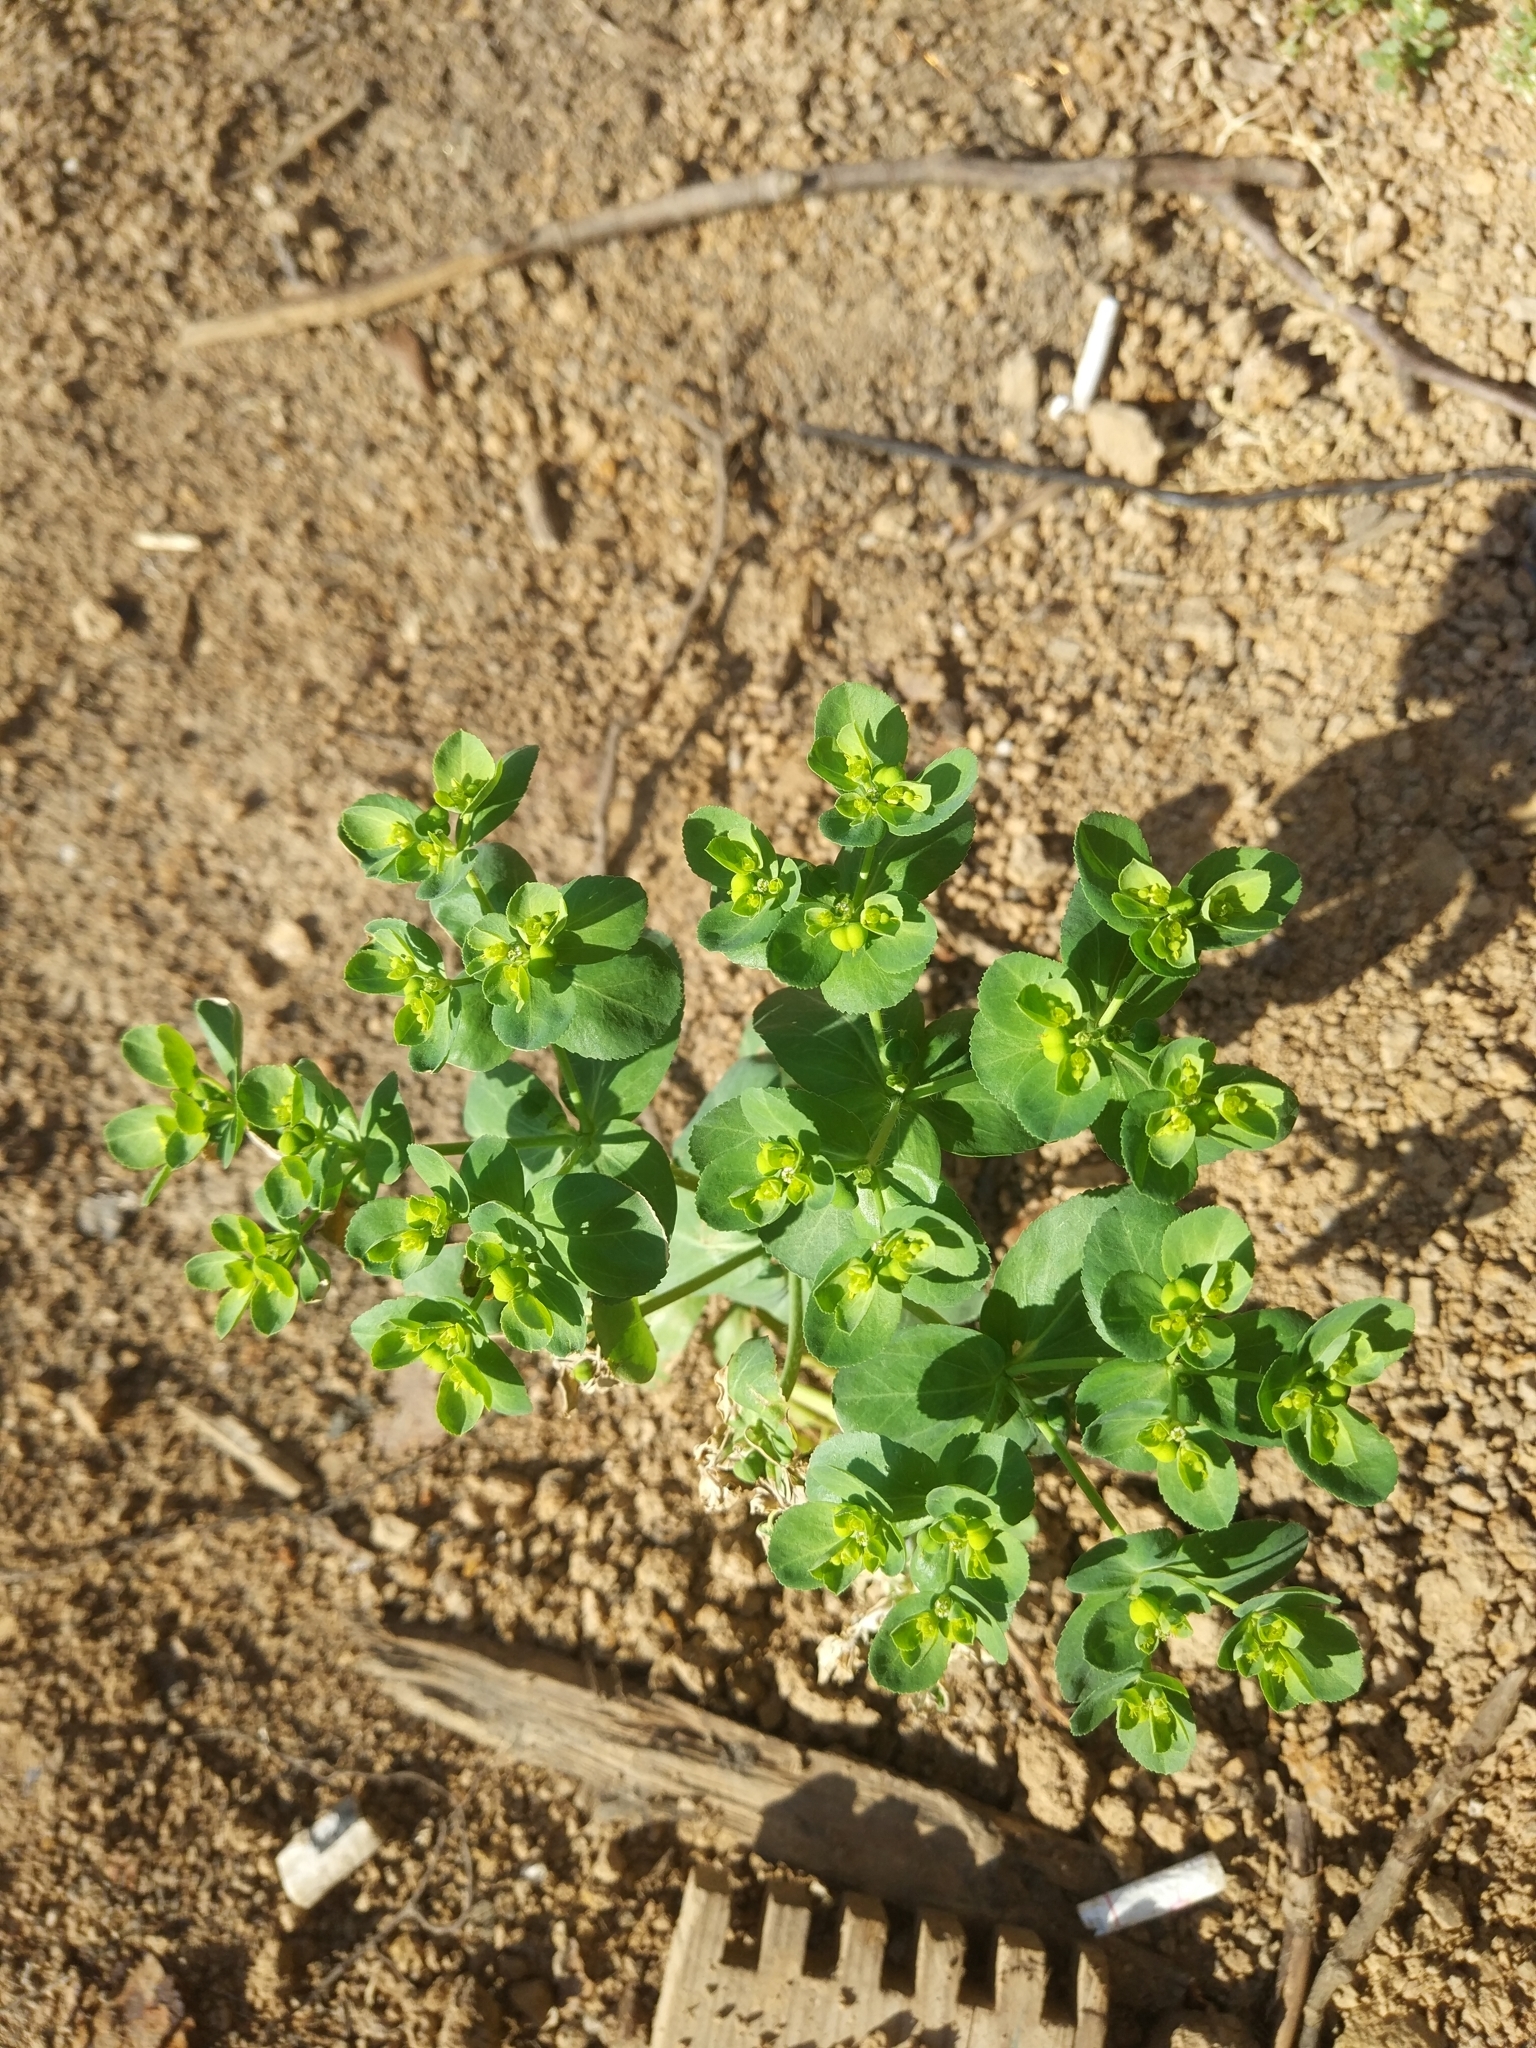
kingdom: Plantae
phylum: Tracheophyta
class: Magnoliopsida
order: Malpighiales
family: Euphorbiaceae
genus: Euphorbia
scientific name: Euphorbia helioscopia
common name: Sun spurge
